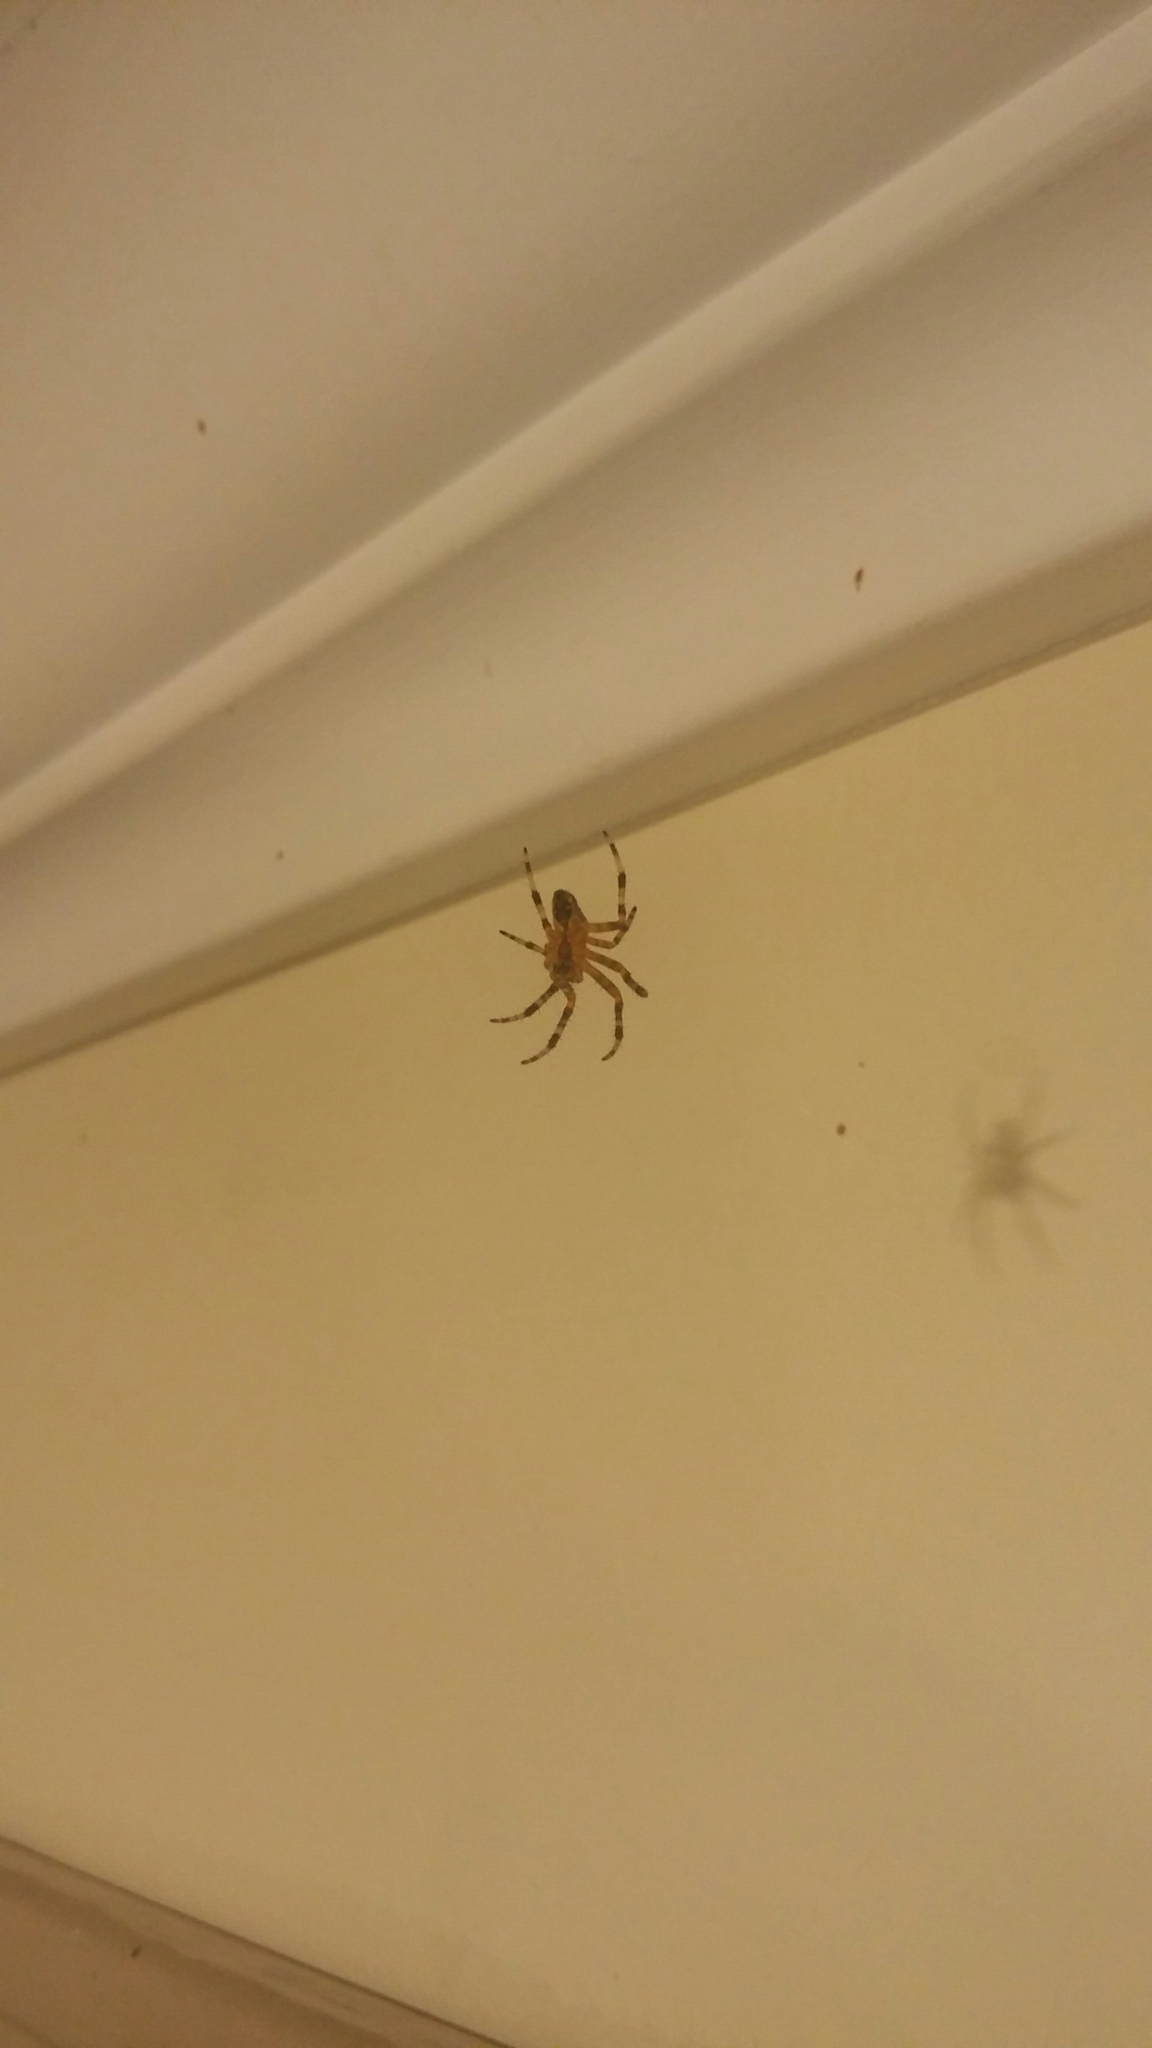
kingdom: Animalia
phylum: Arthropoda
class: Arachnida
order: Araneae
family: Araneidae
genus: Araneus
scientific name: Araneus diadematus
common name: Cross orbweaver
